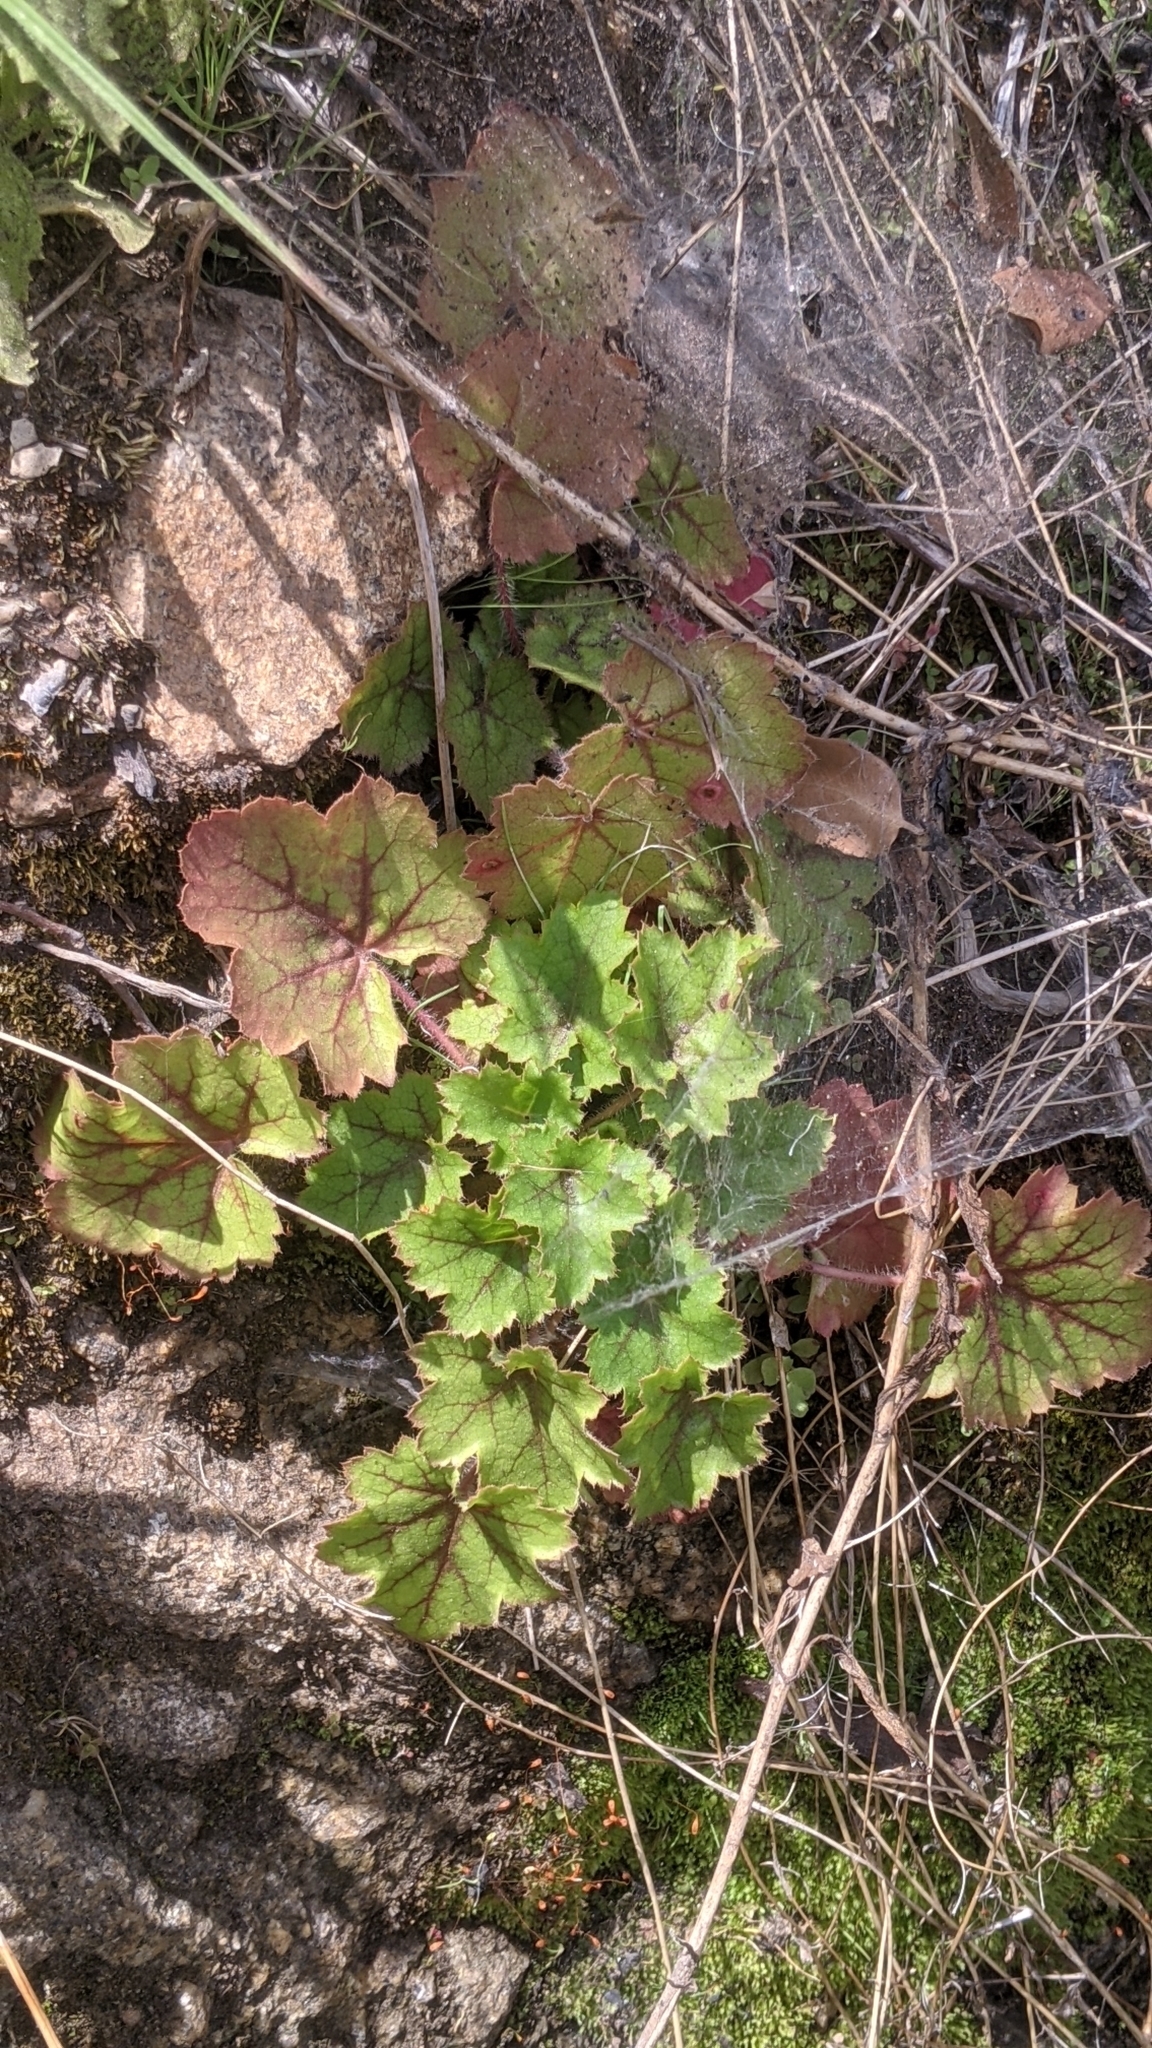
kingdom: Plantae
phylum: Tracheophyta
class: Magnoliopsida
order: Saxifragales
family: Saxifragaceae
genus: Heuchera
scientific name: Heuchera micrantha
